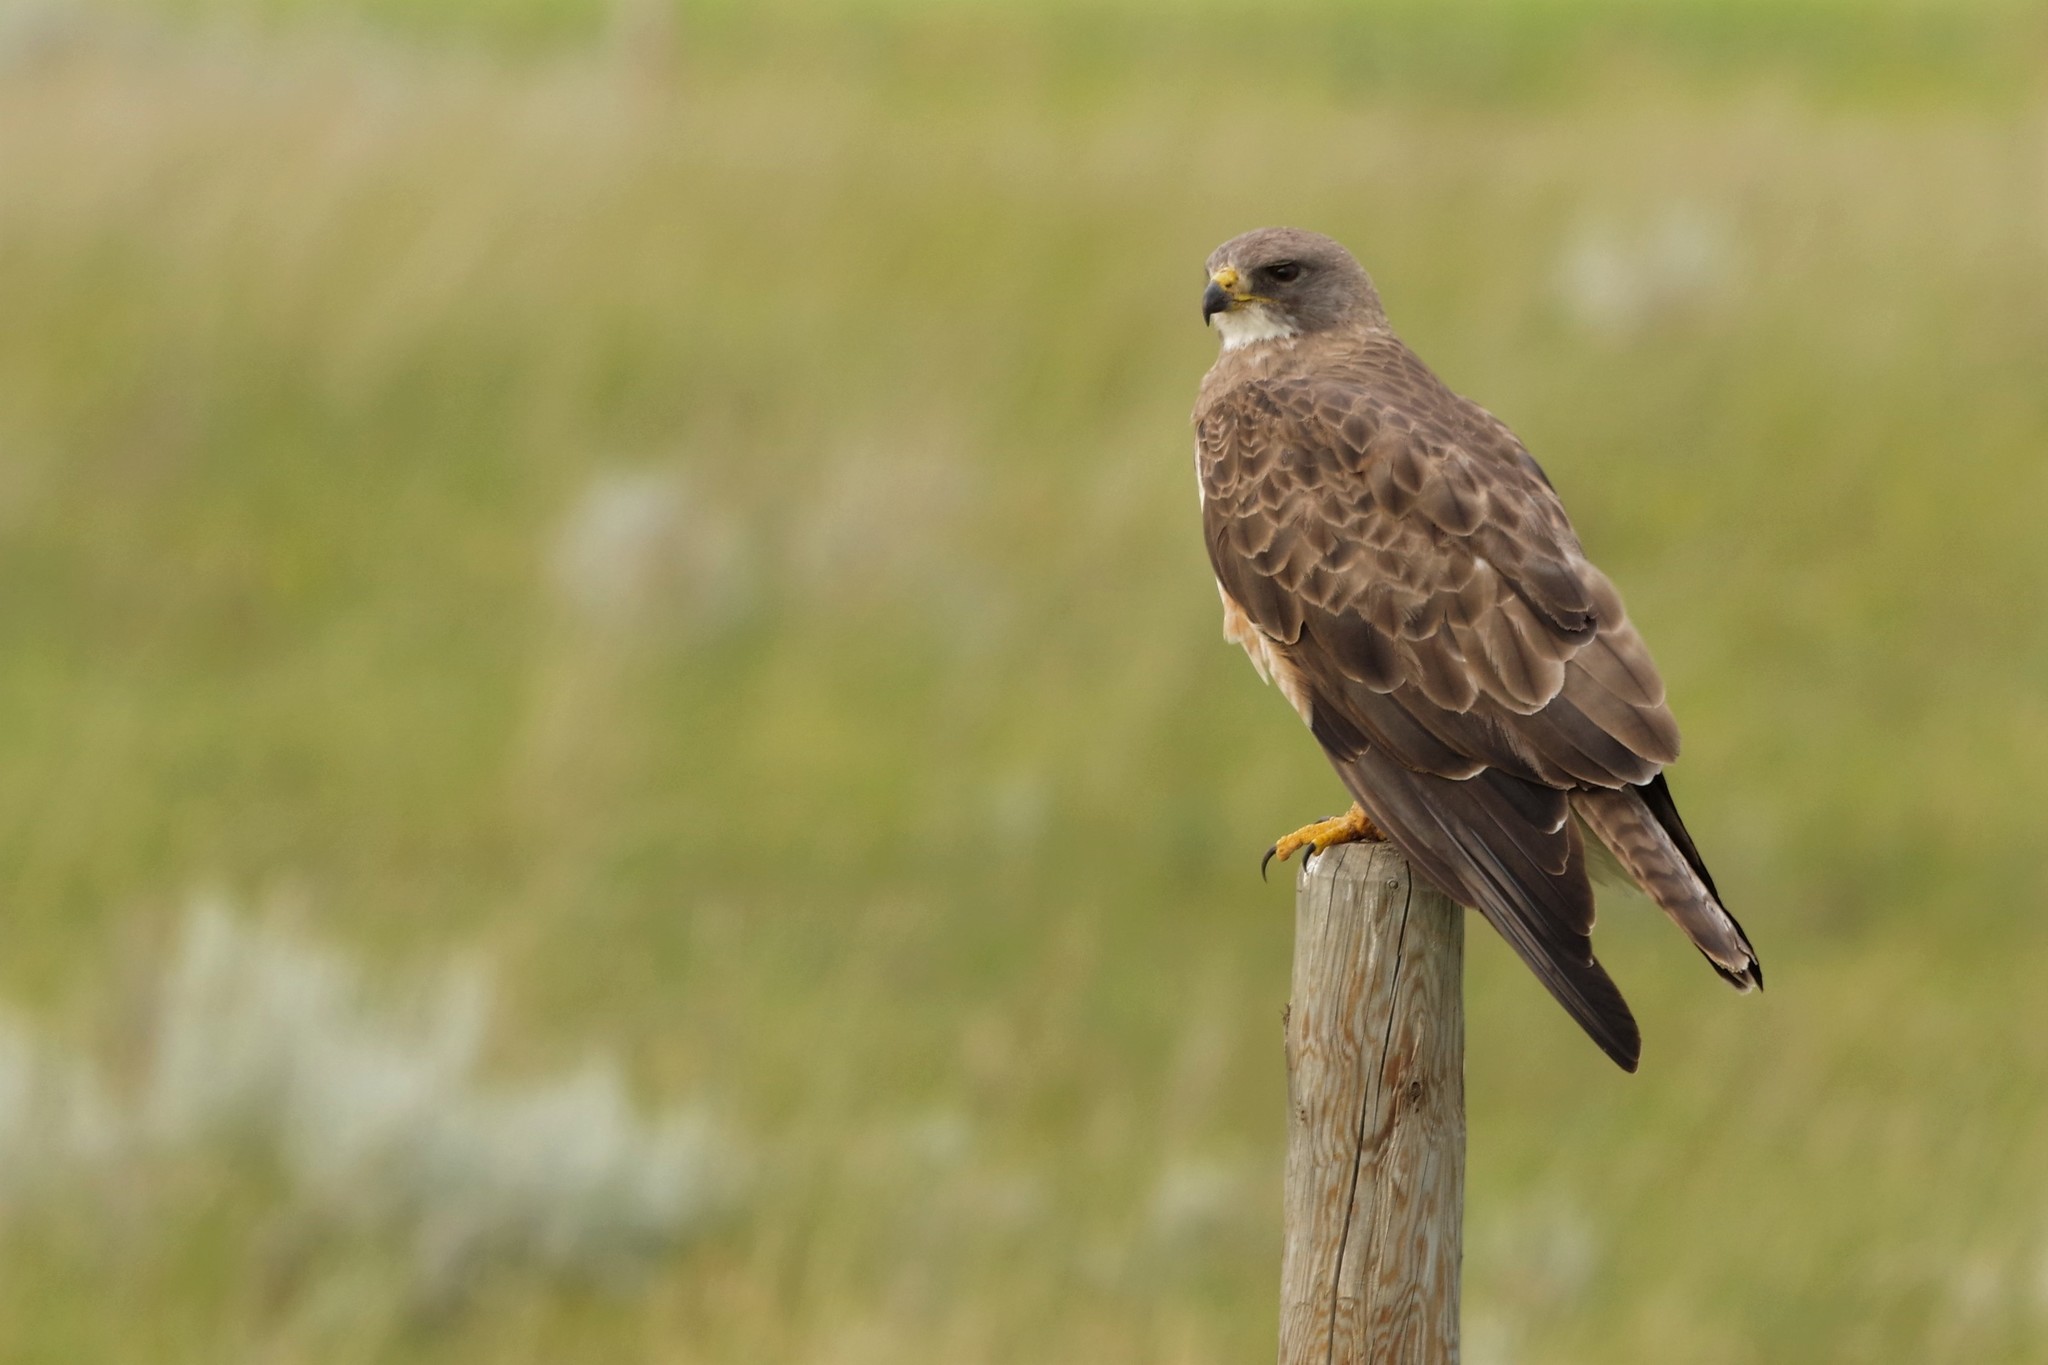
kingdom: Animalia
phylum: Chordata
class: Aves
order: Accipitriformes
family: Accipitridae
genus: Buteo
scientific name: Buteo swainsoni
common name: Swainson's hawk
